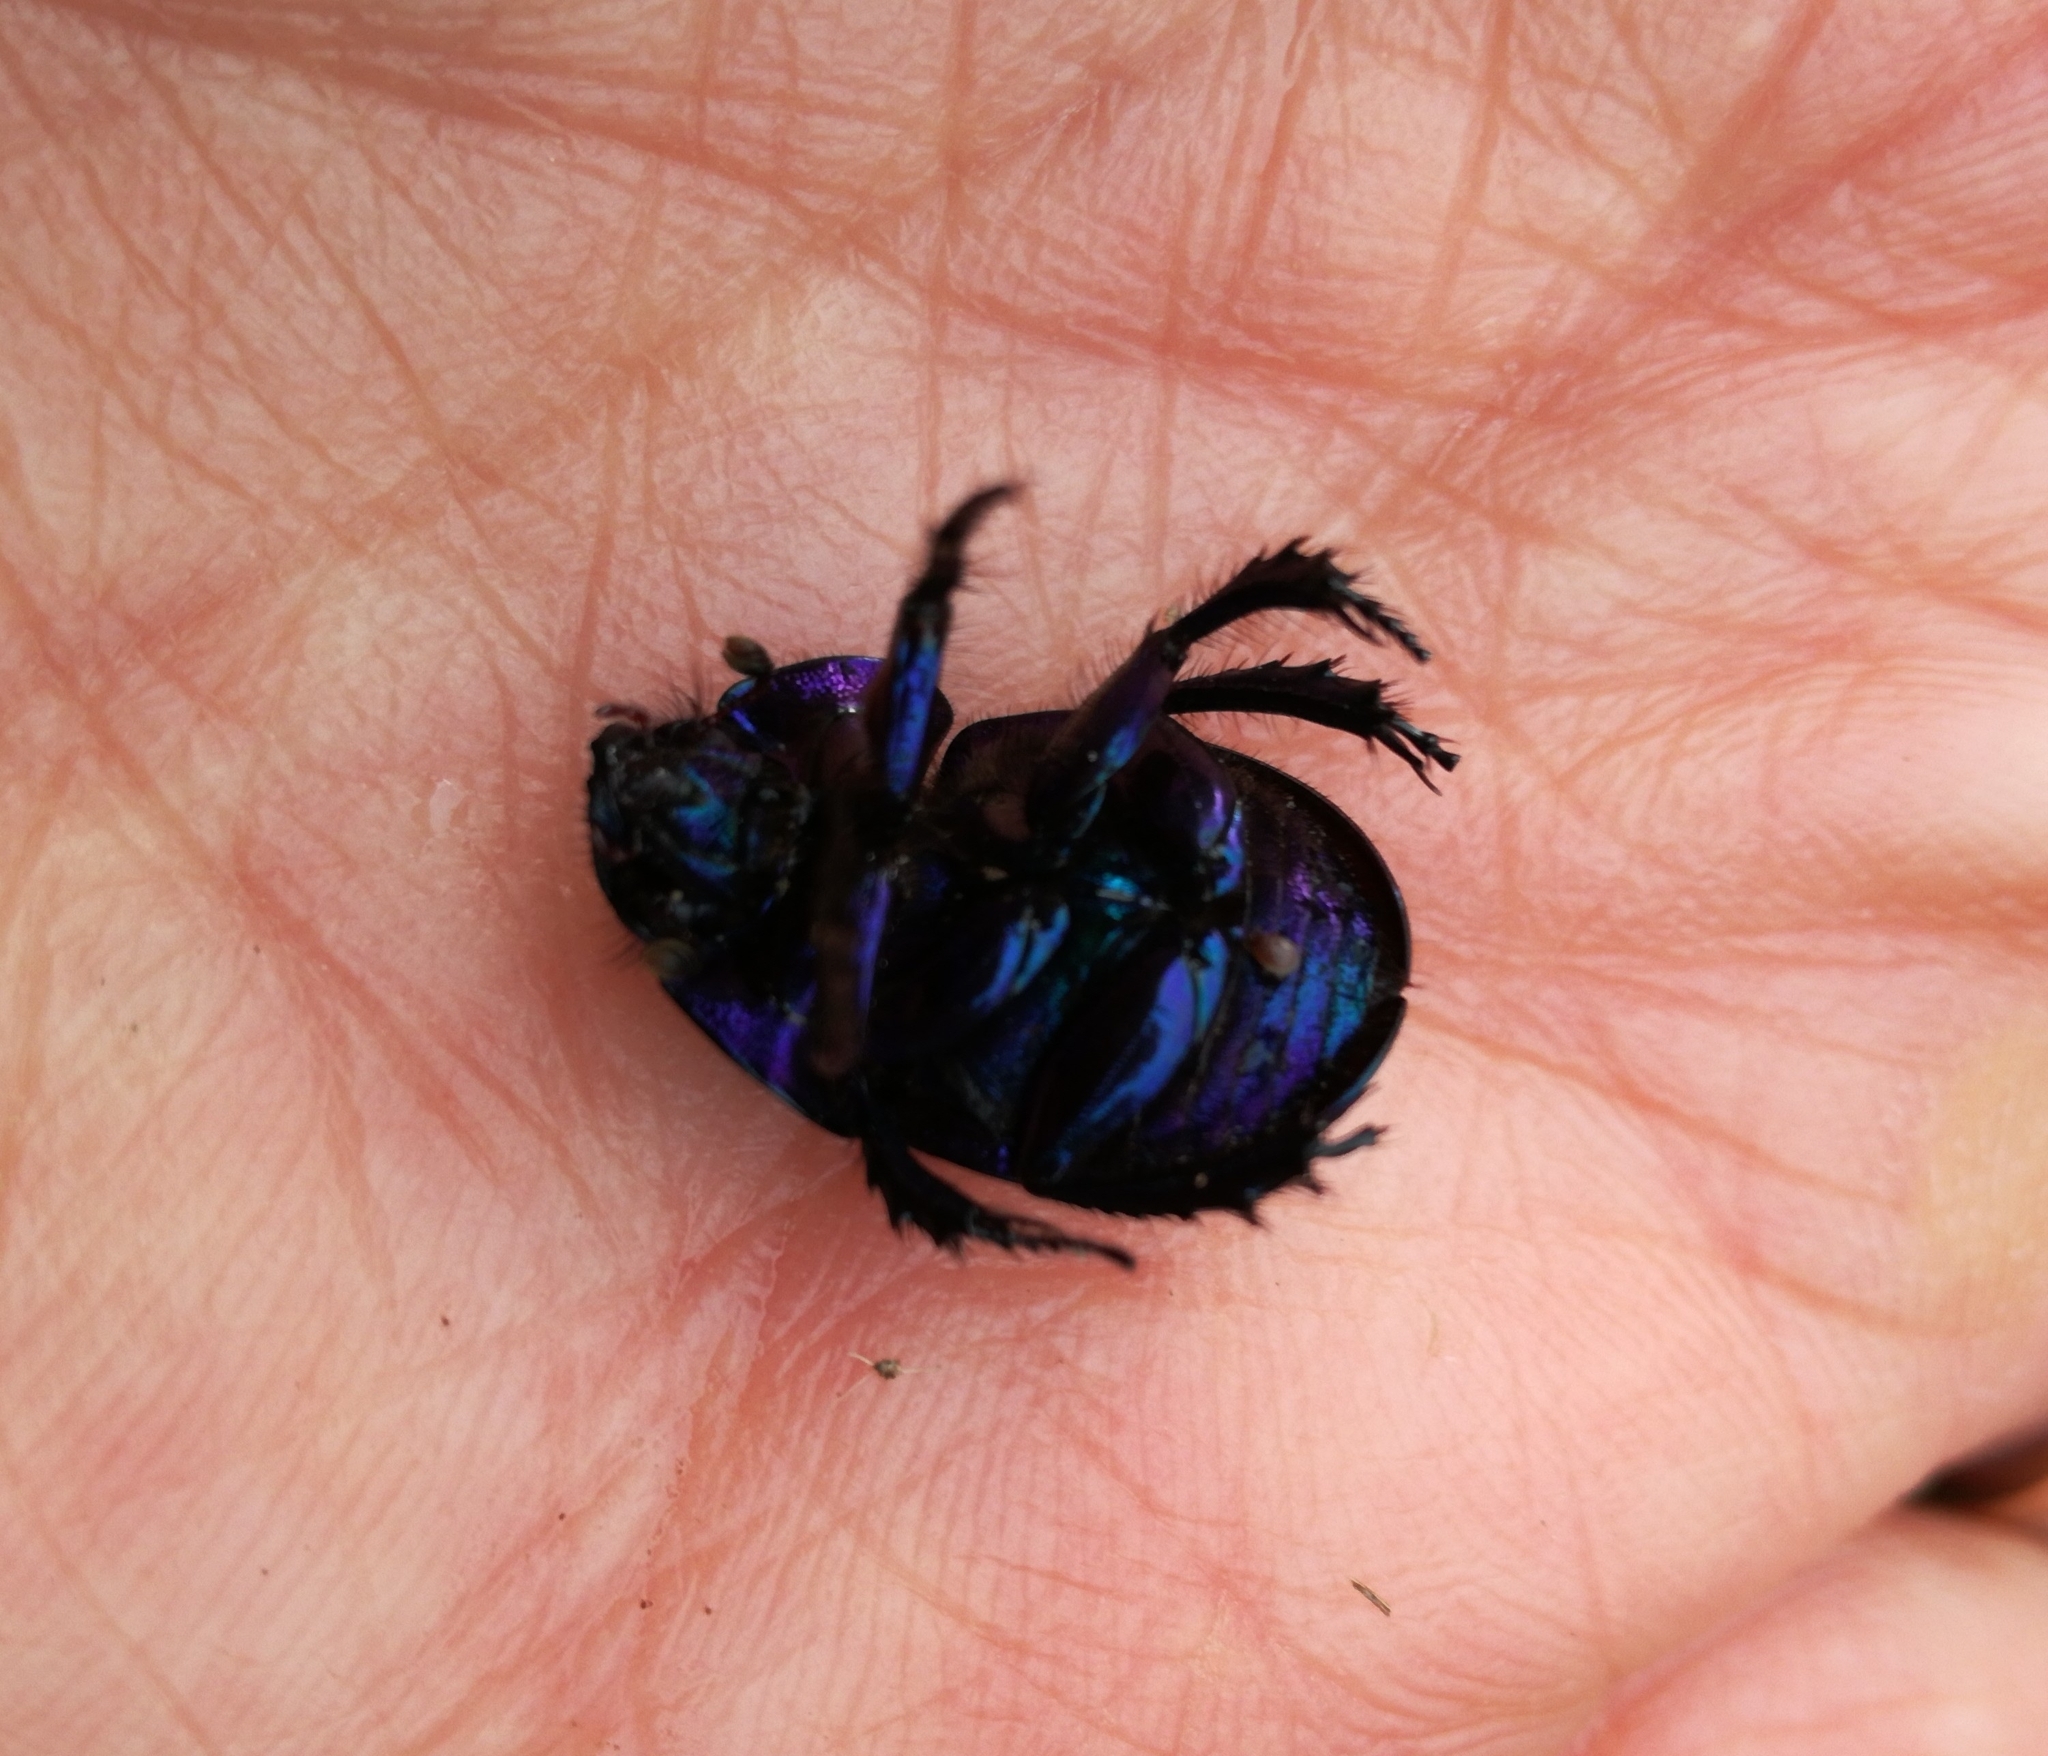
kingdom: Animalia
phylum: Arthropoda
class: Insecta
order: Coleoptera
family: Geotrupidae
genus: Anoplotrupes
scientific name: Anoplotrupes stercorosus
